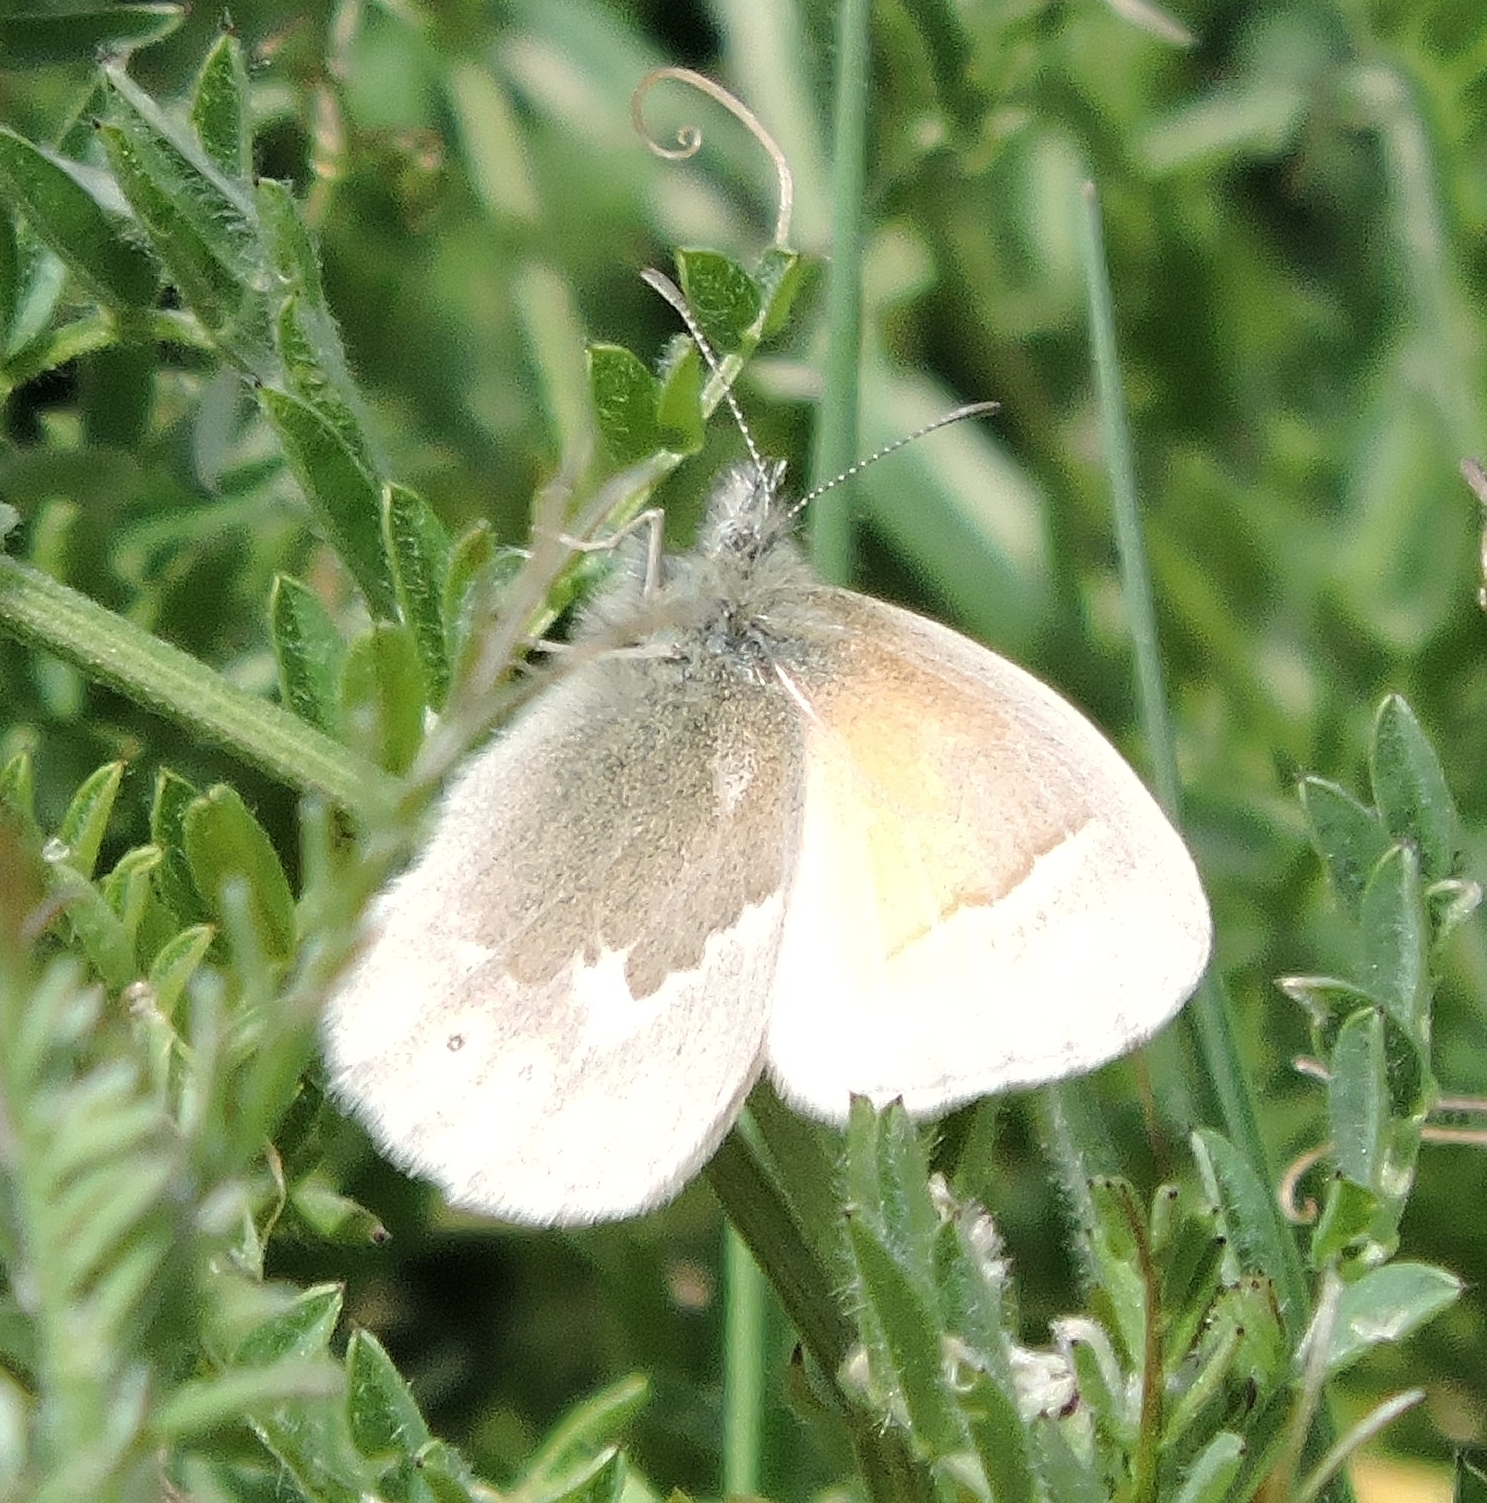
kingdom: Animalia
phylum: Arthropoda
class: Insecta
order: Lepidoptera
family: Nymphalidae
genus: Coenonympha
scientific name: Coenonympha california
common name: Common ringlet
